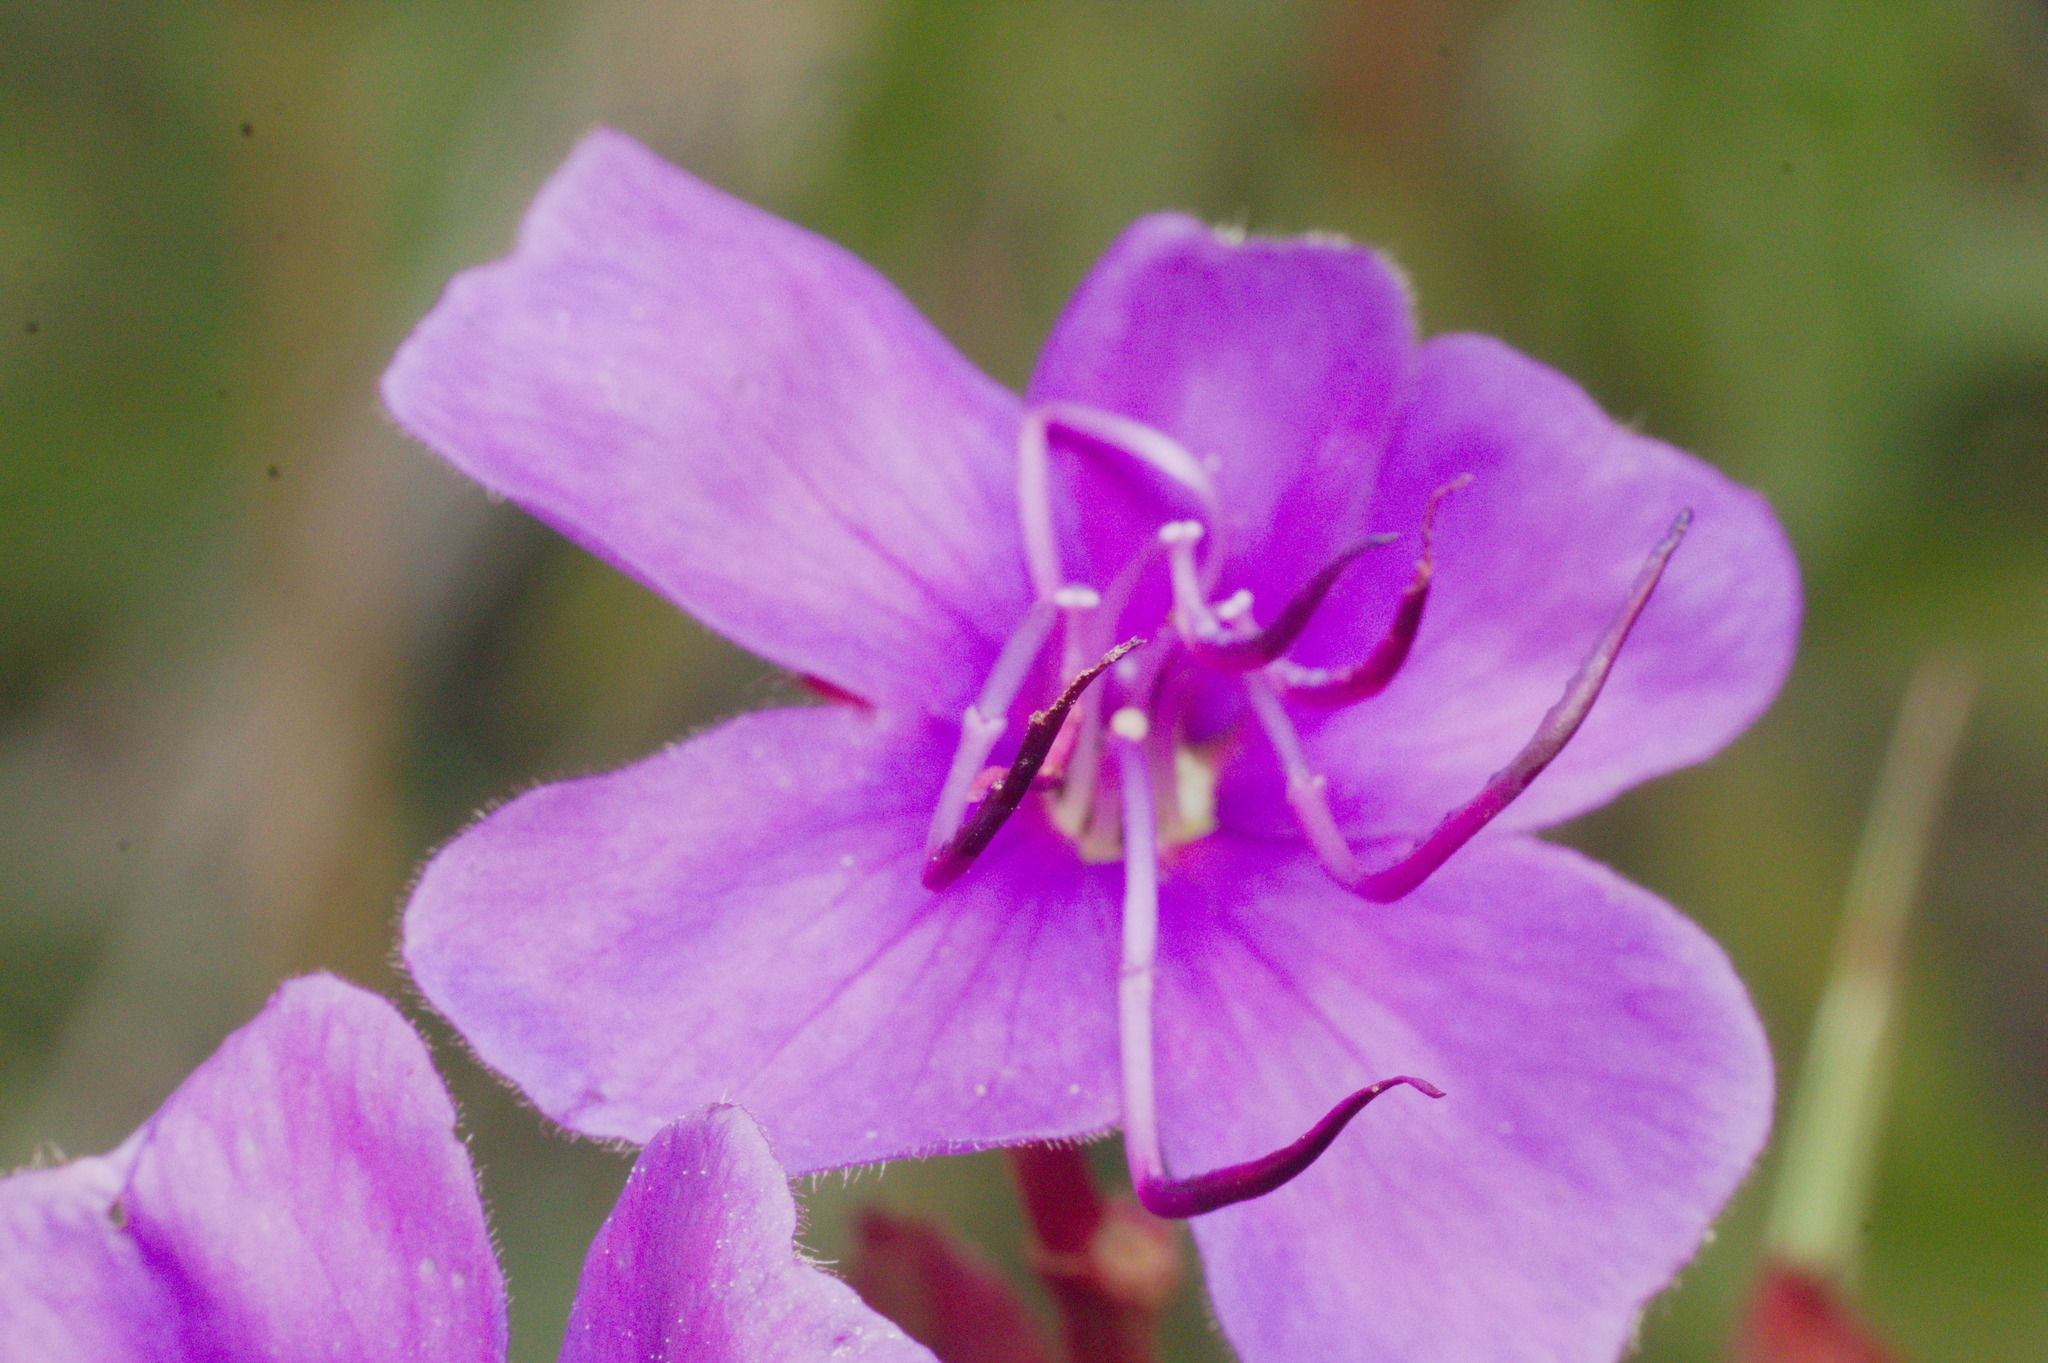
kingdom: Plantae
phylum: Tracheophyta
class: Magnoliopsida
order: Myrtales
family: Melastomataceae
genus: Pleroma
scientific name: Pleroma urvilleanum
